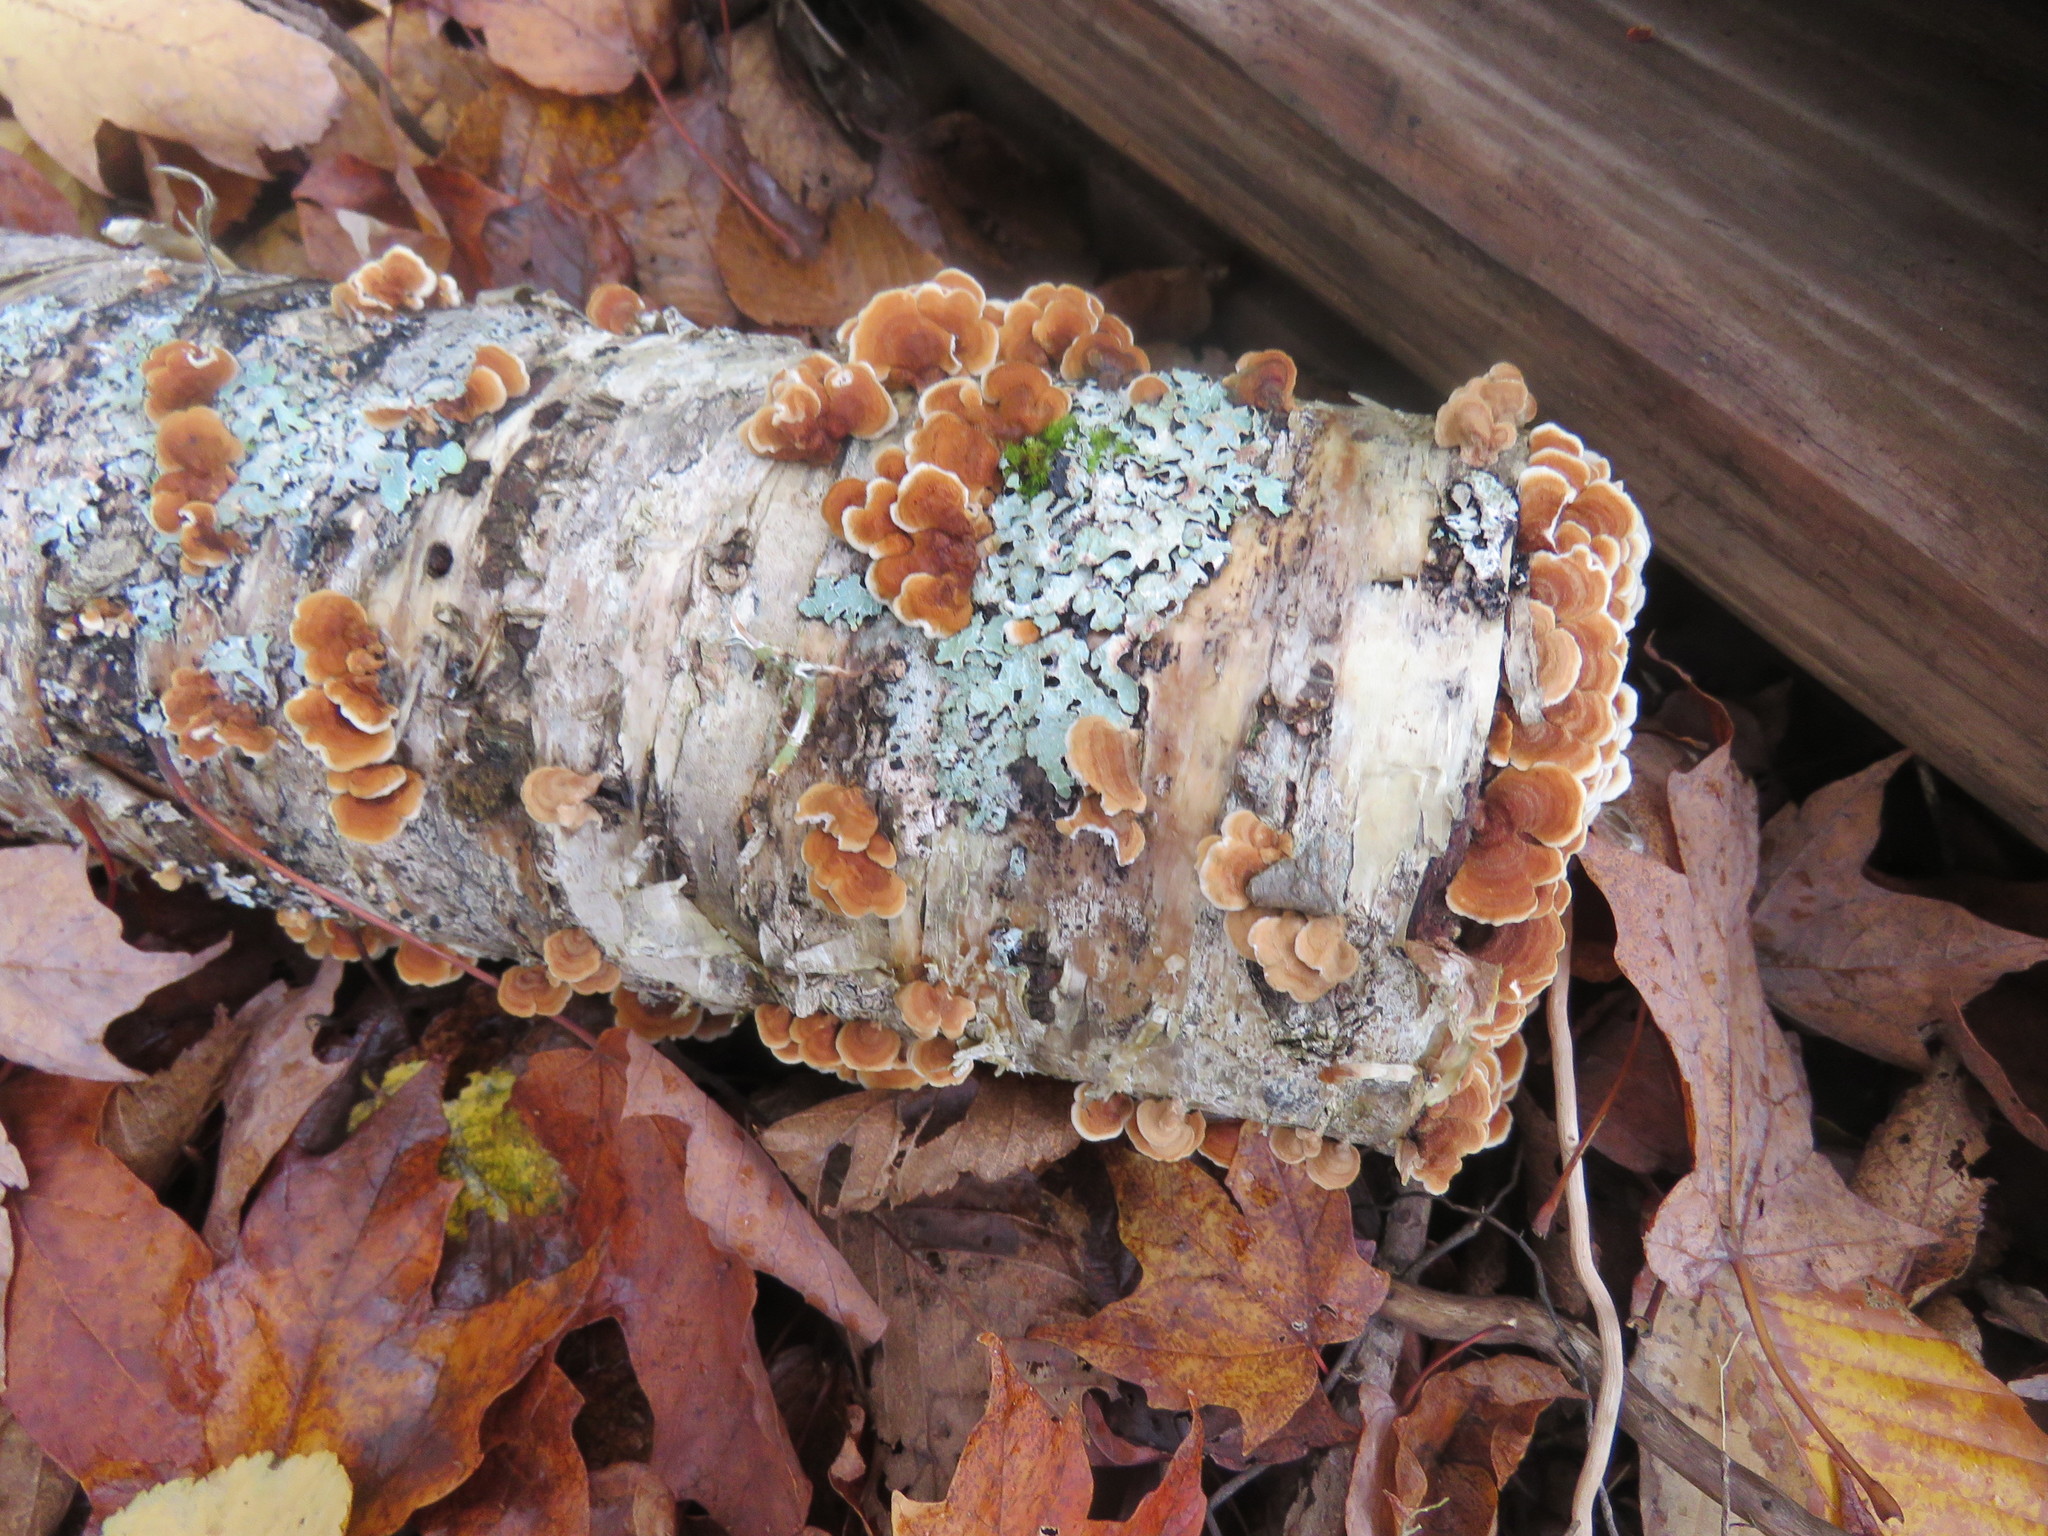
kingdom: Fungi
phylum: Basidiomycota
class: Agaricomycetes
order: Amylocorticiales
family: Amylocorticiaceae
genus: Plicaturopsis
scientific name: Plicaturopsis crispa
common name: Crimped gill
